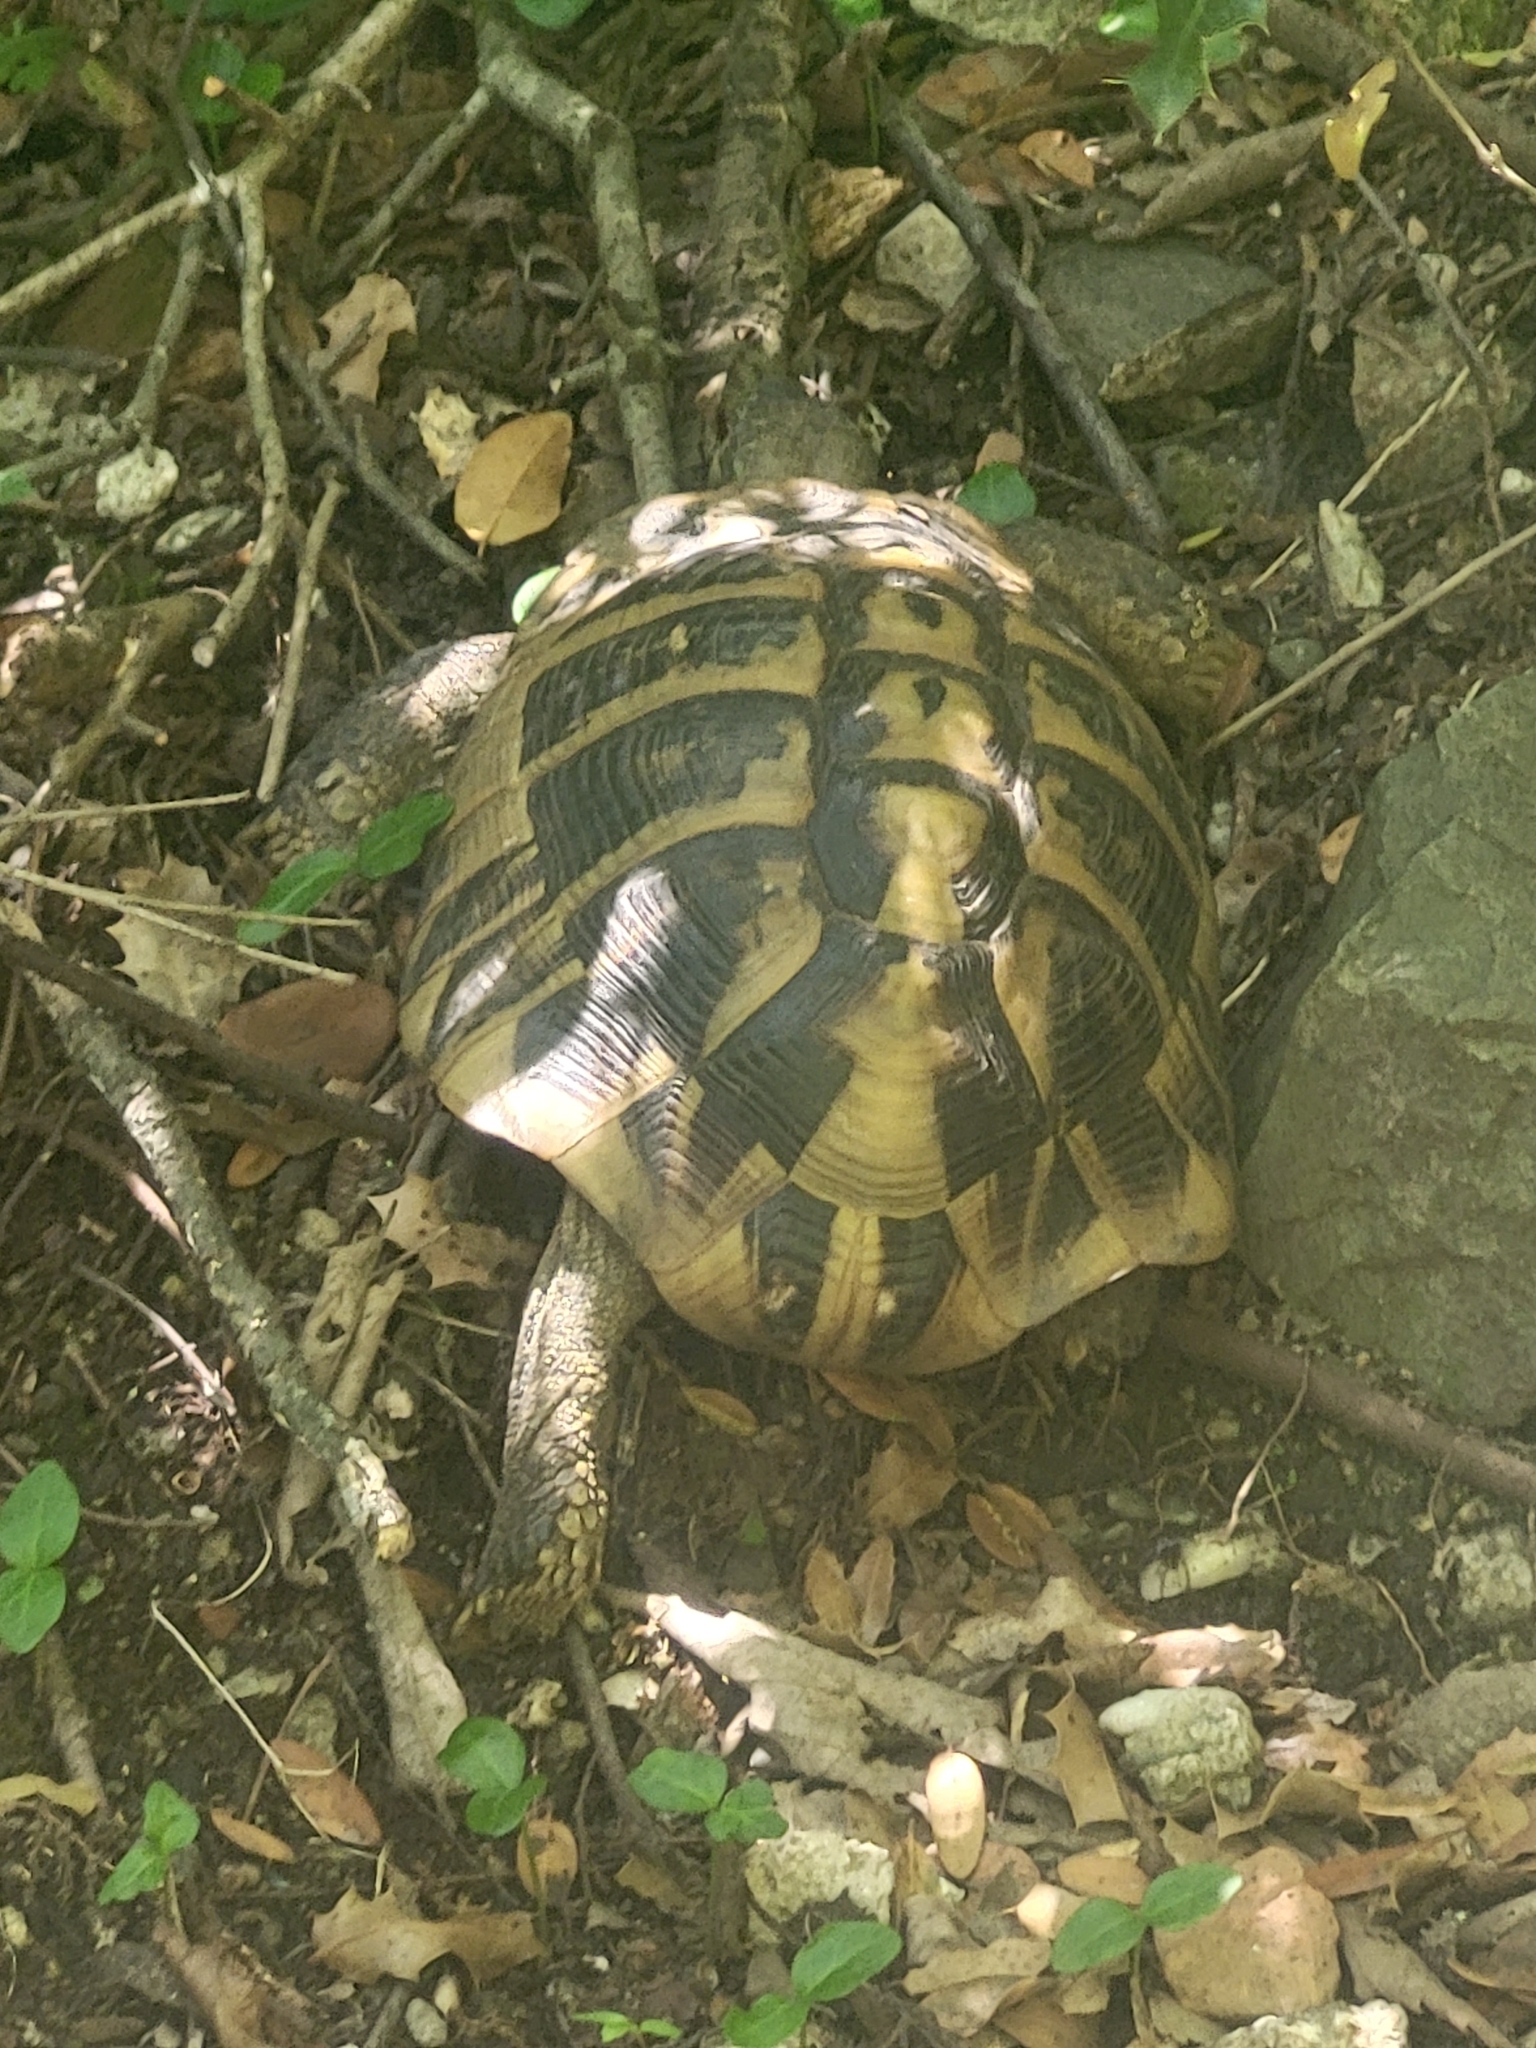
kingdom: Animalia
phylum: Chordata
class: Testudines
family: Testudinidae
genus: Testudo
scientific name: Testudo hermanni
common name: Hermann's tortoise
